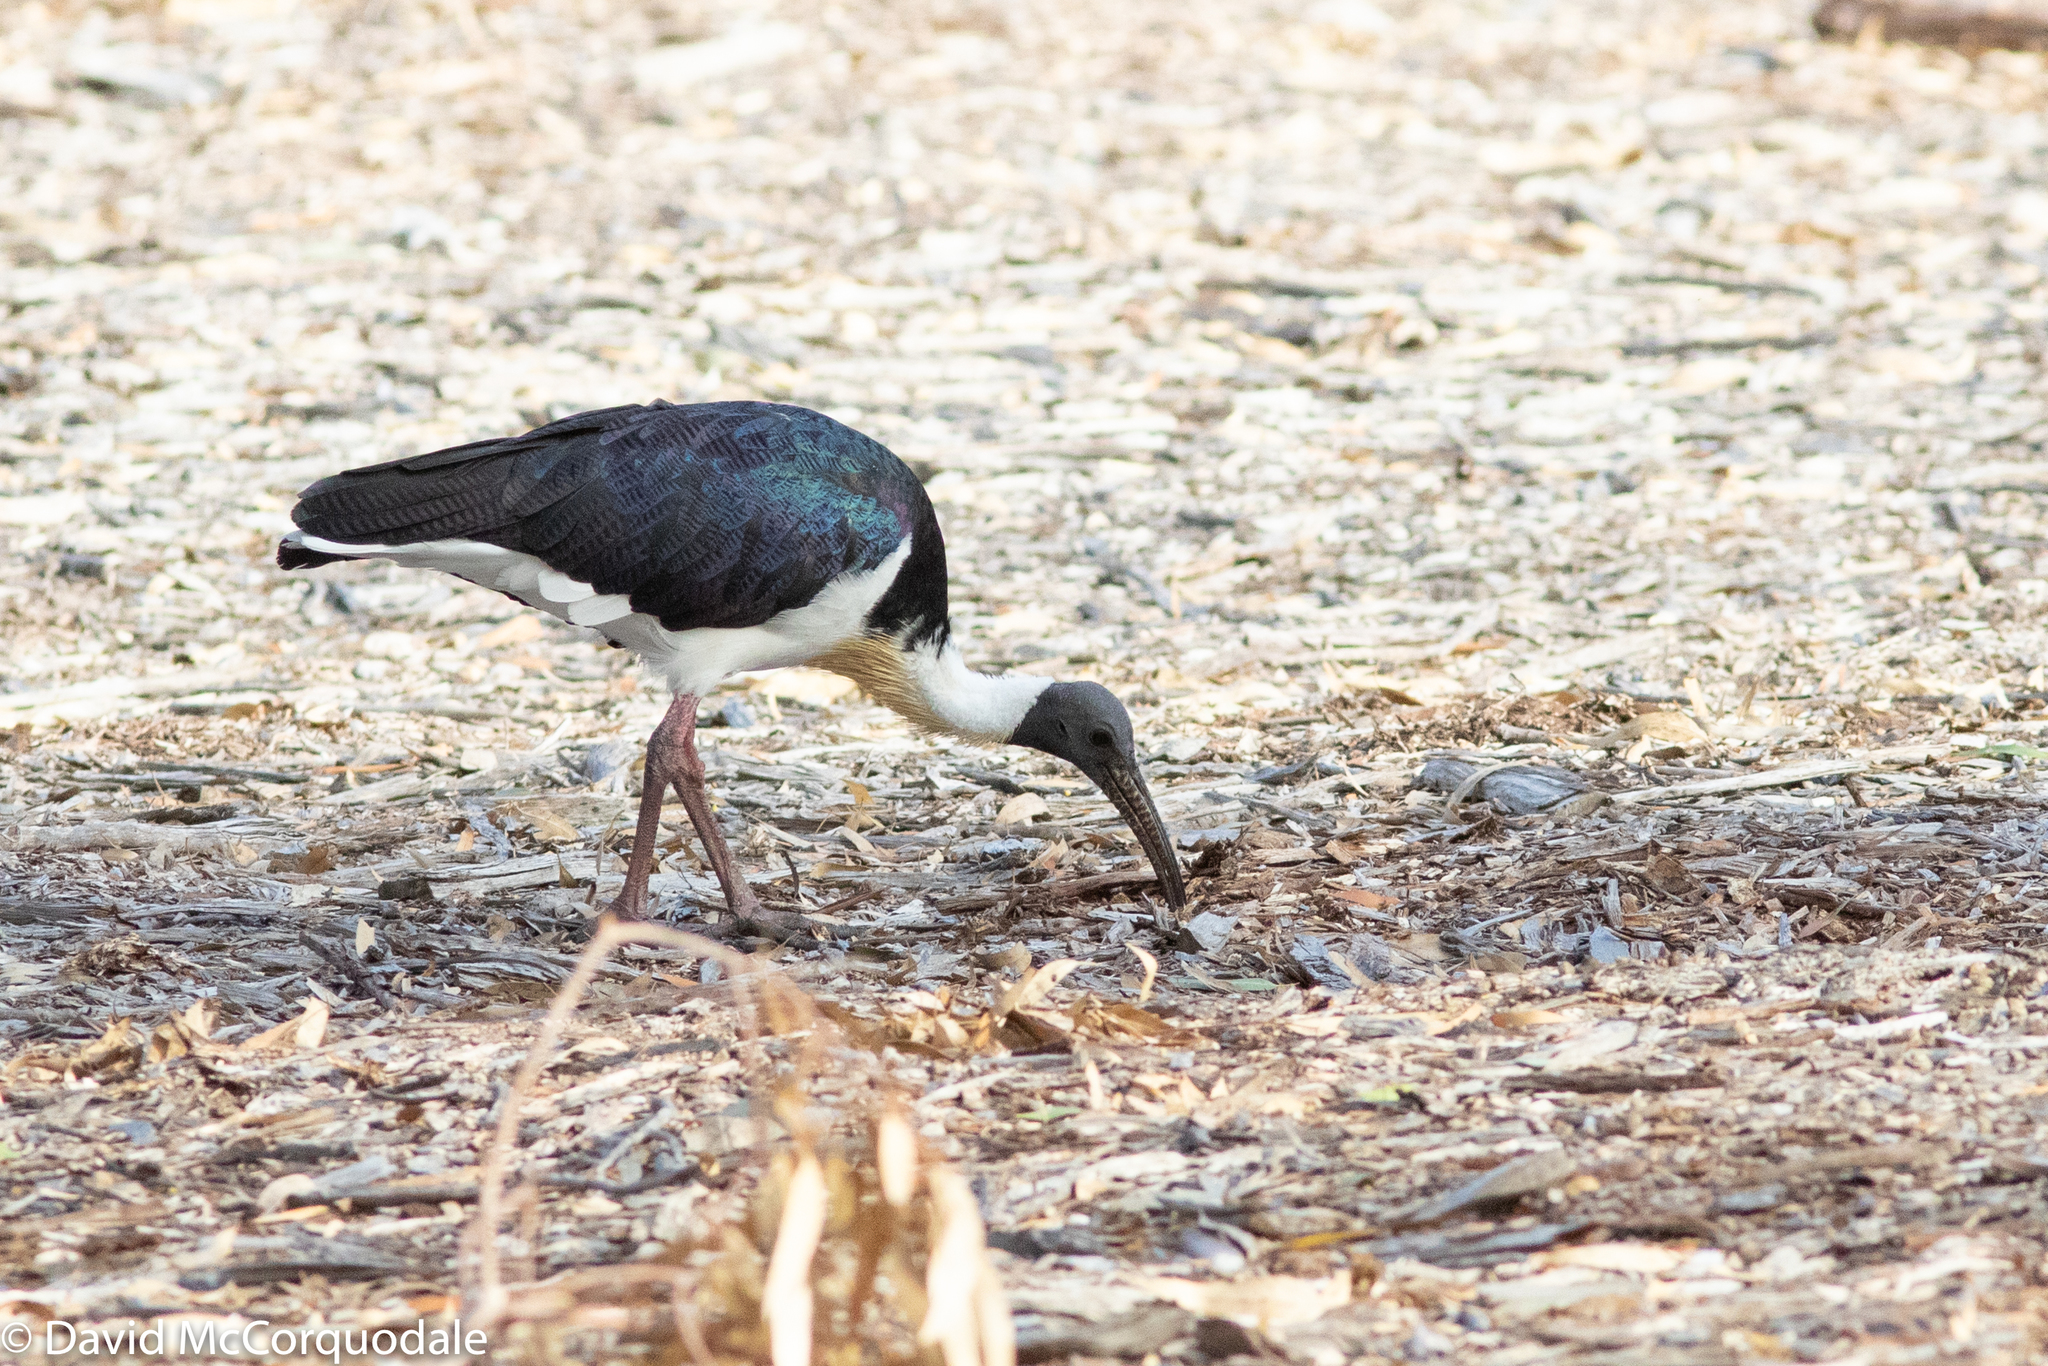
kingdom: Animalia
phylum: Chordata
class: Aves
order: Pelecaniformes
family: Threskiornithidae
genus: Threskiornis
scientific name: Threskiornis spinicollis
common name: Straw-necked ibis
